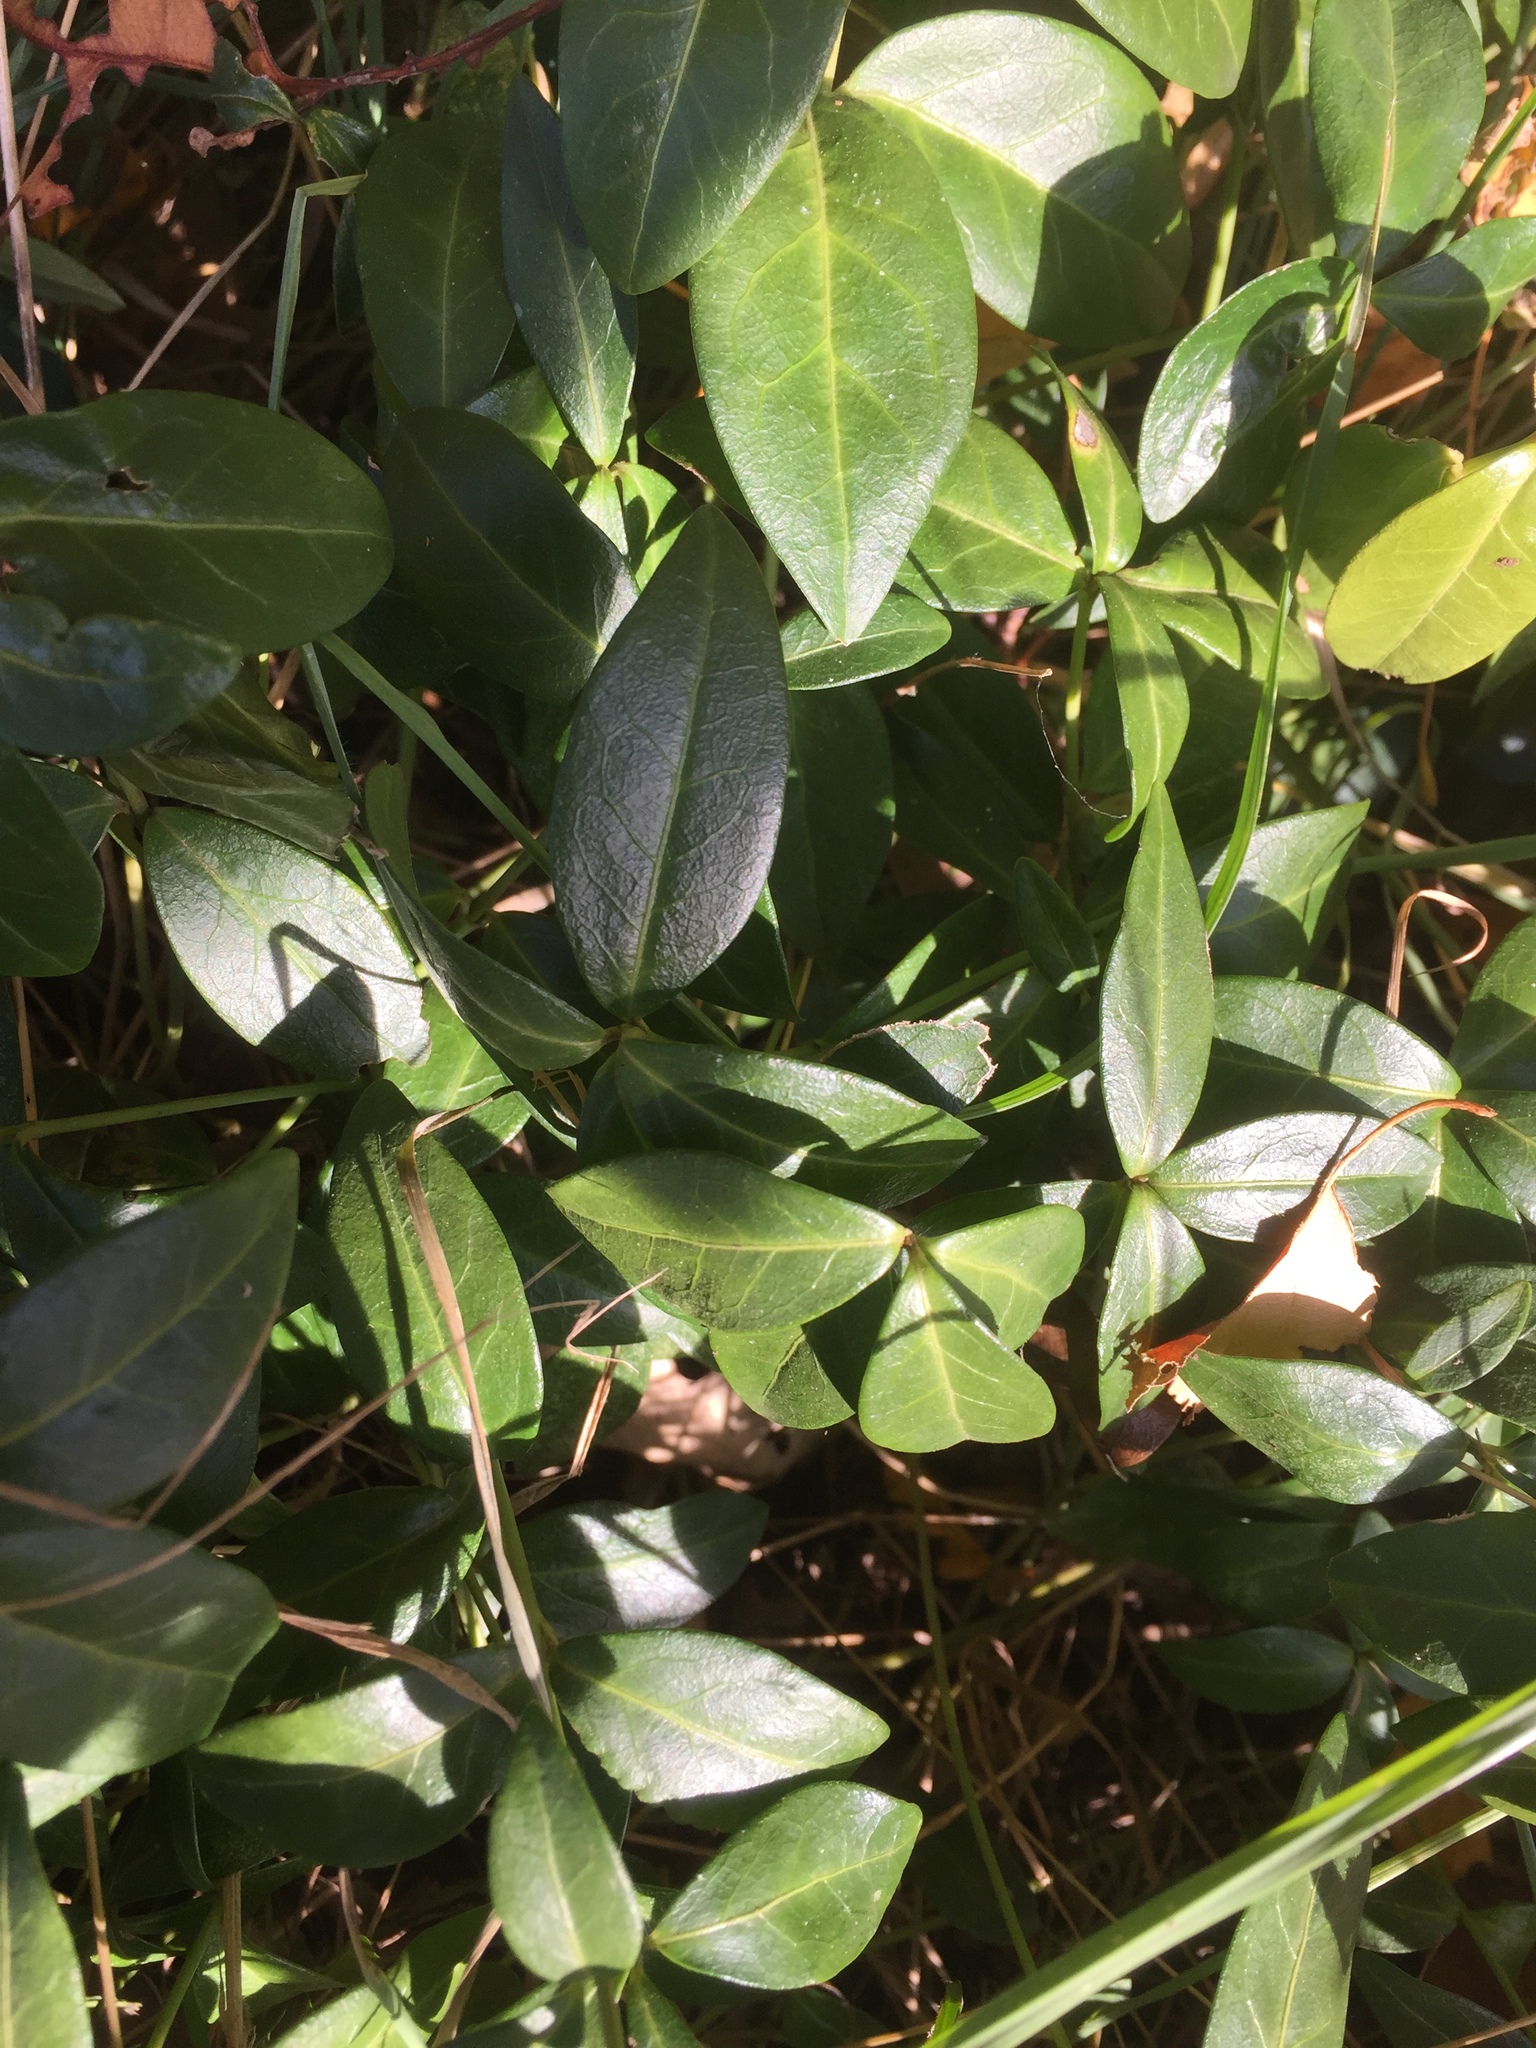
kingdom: Plantae
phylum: Tracheophyta
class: Magnoliopsida
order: Gentianales
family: Apocynaceae
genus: Vinca
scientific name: Vinca minor
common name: Lesser periwinkle
